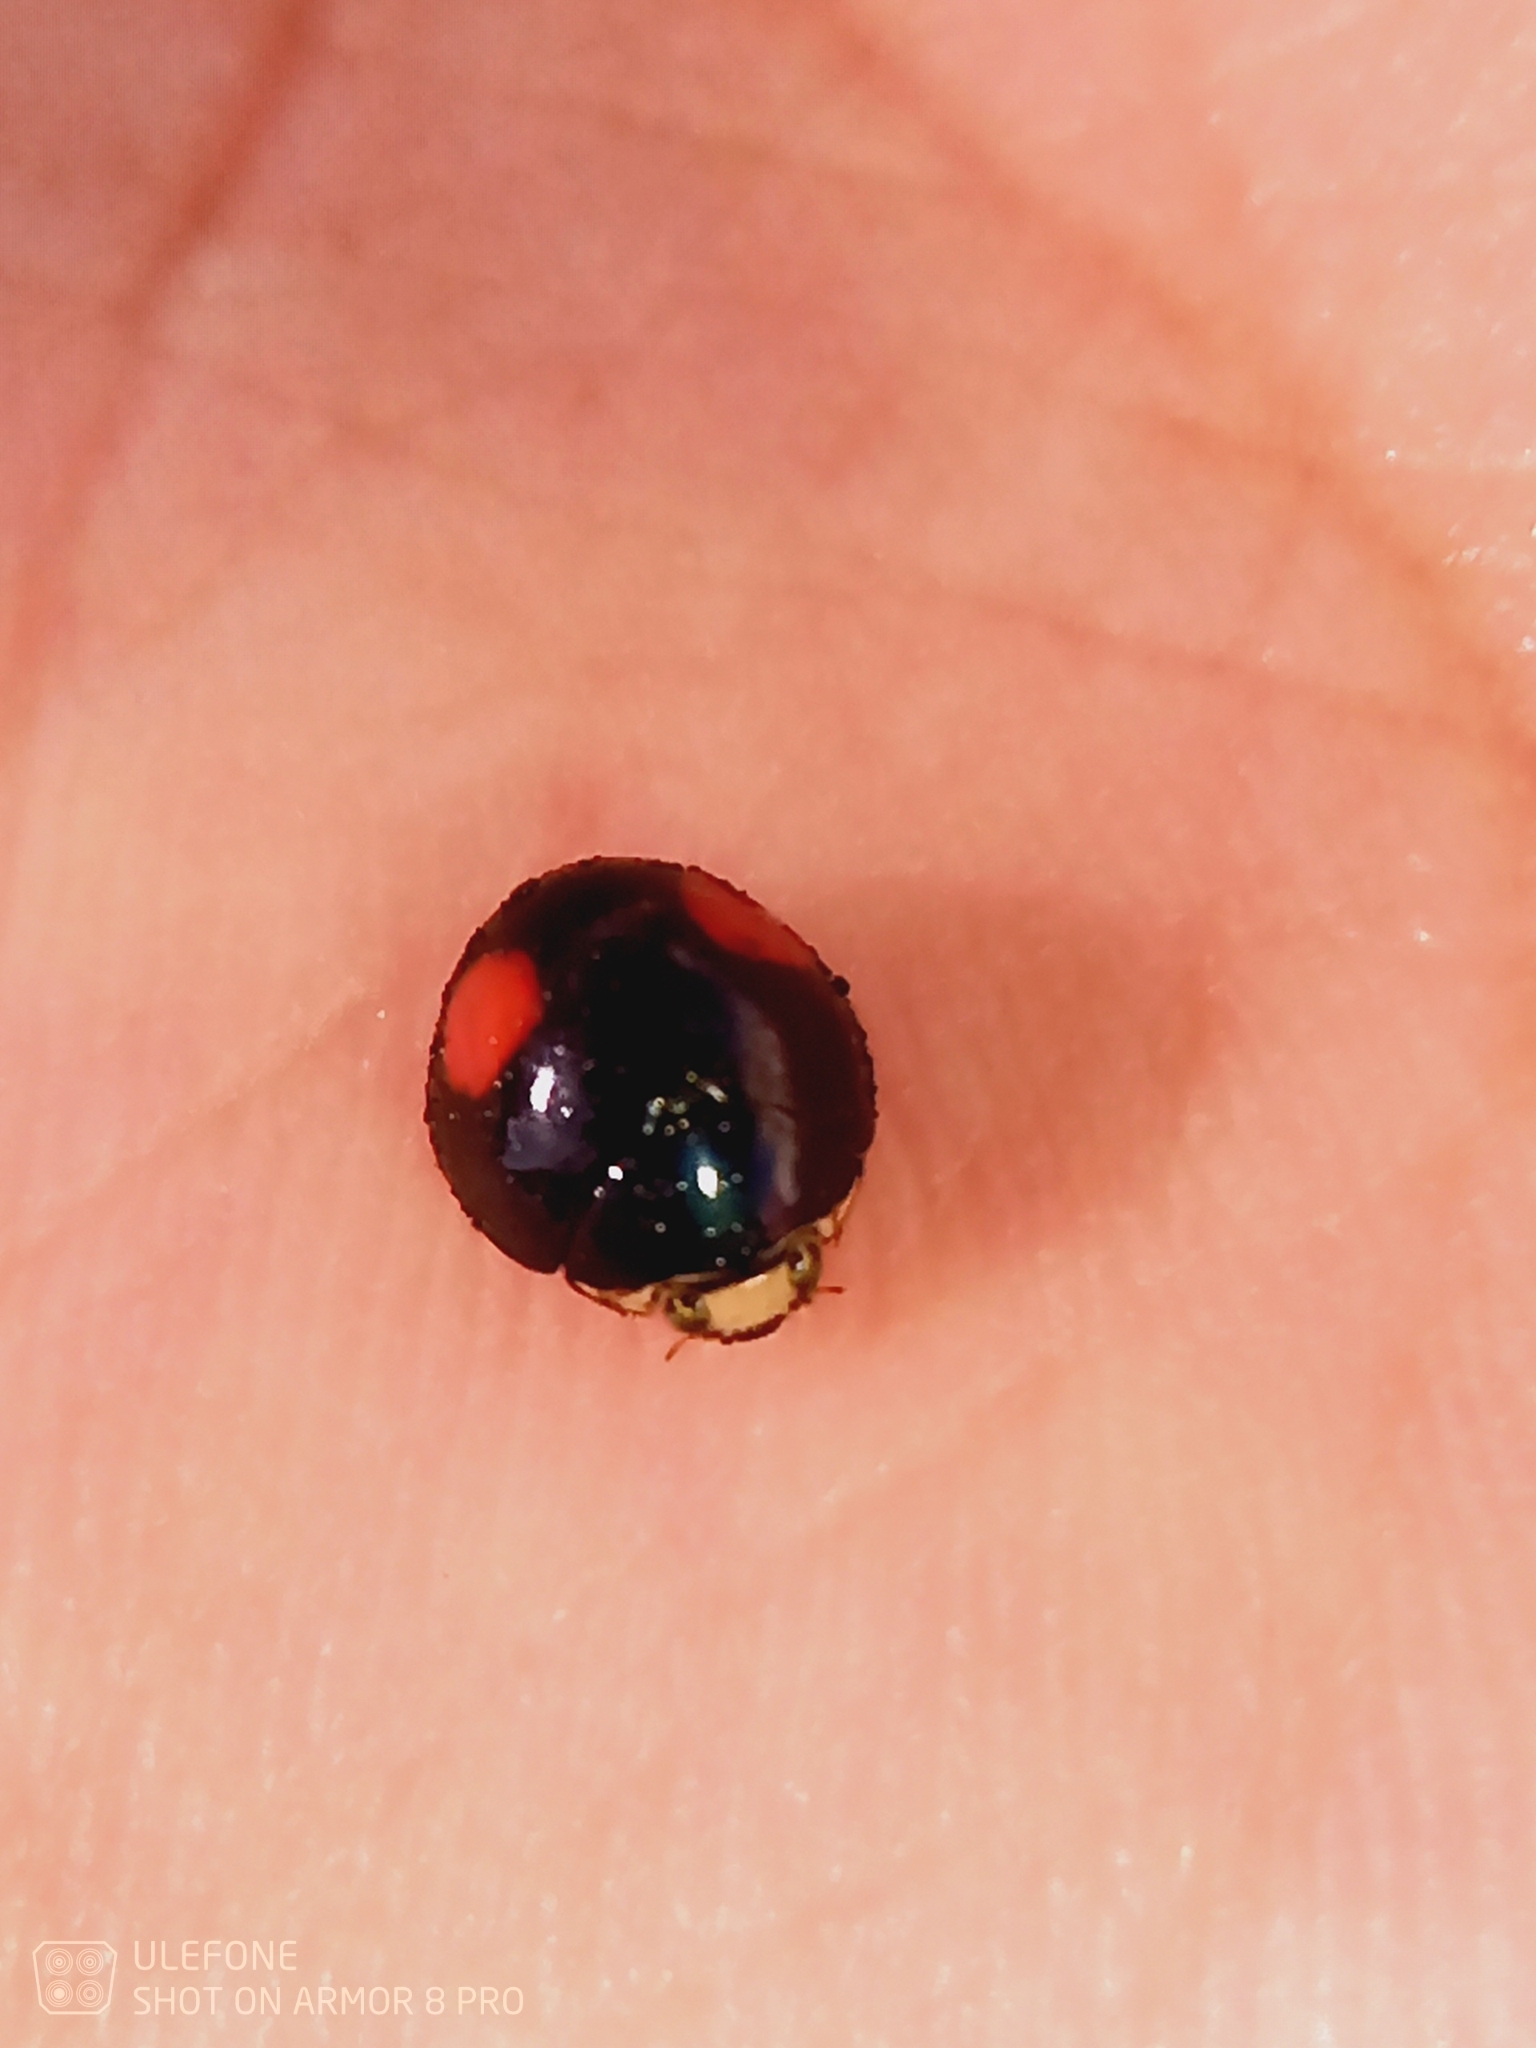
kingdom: Animalia
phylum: Arthropoda
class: Insecta
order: Coleoptera
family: Coccinellidae
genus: Thalassa
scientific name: Thalassa montezumae
